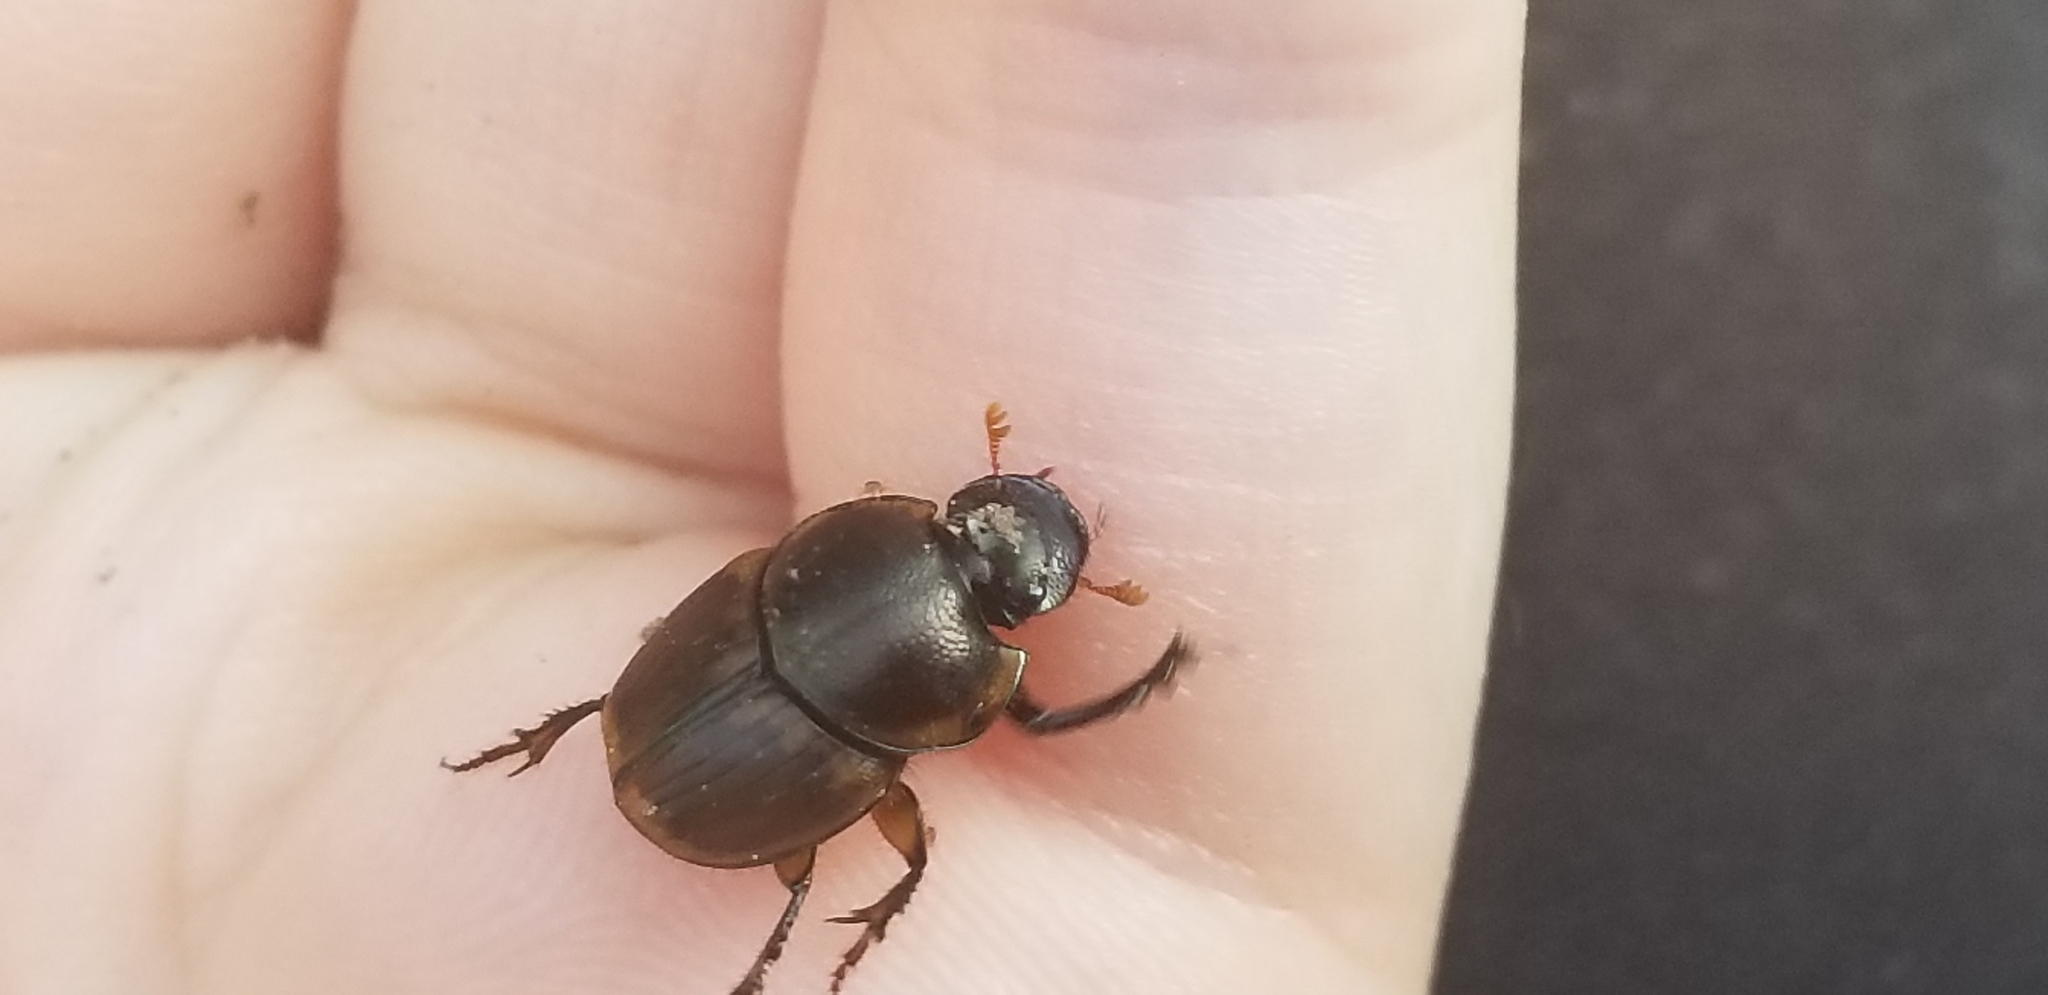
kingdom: Animalia
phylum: Arthropoda
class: Insecta
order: Coleoptera
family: Scarabaeidae
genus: Digitonthophagus
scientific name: Digitonthophagus gazella
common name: Brown dung beetle
